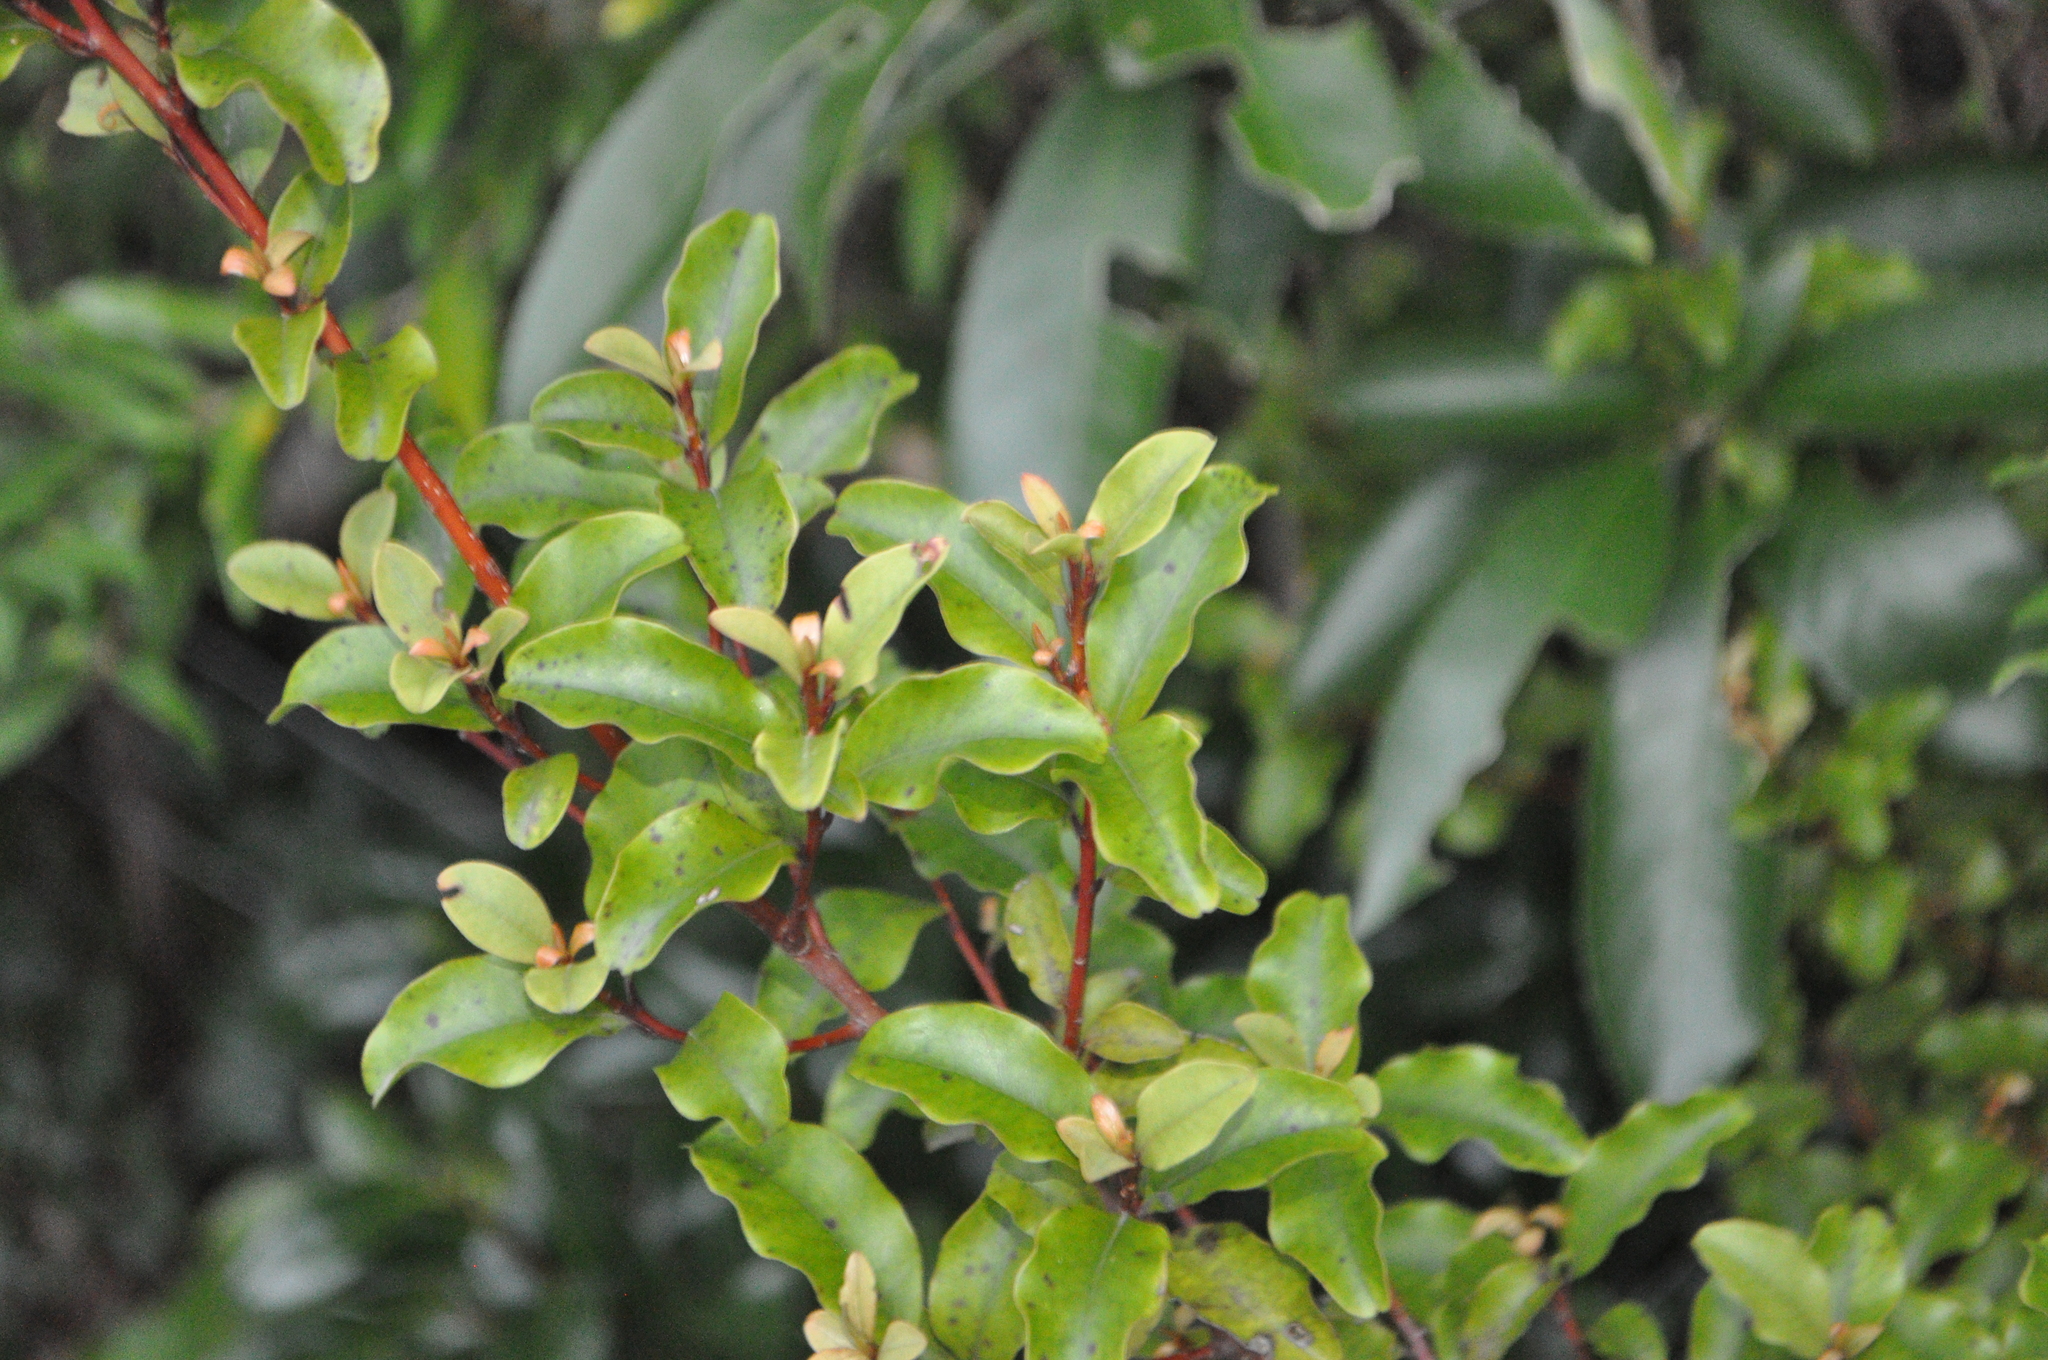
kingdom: Plantae
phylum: Tracheophyta
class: Magnoliopsida
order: Ericales
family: Primulaceae
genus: Myrsine
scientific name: Myrsine australis
